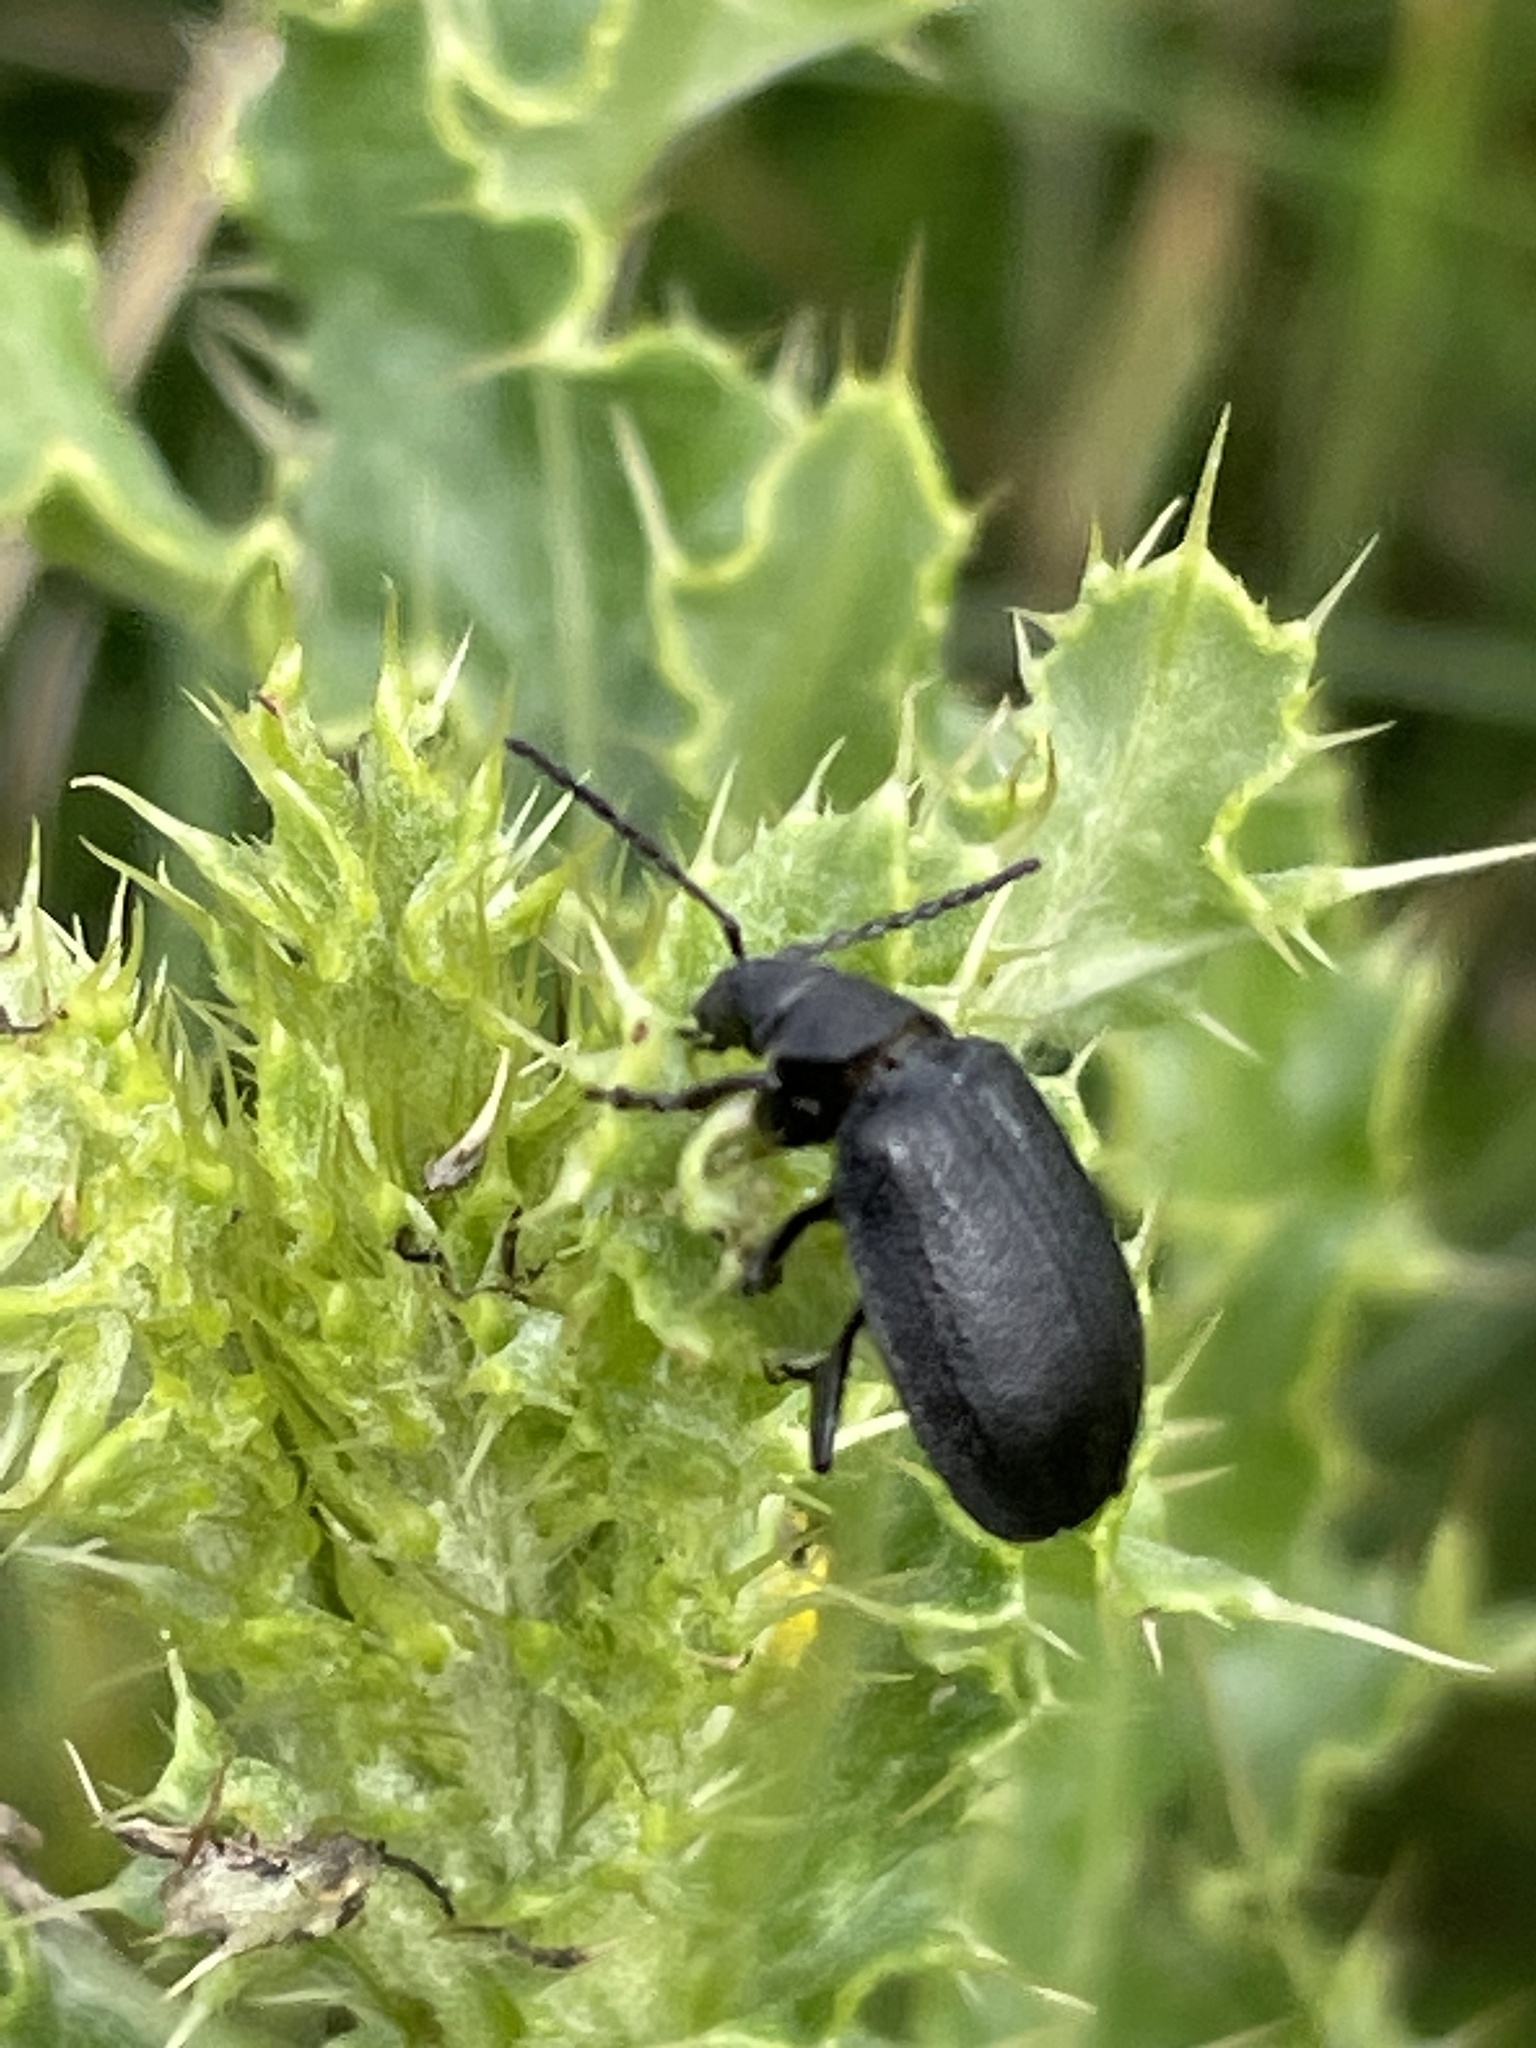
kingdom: Animalia
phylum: Arthropoda
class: Insecta
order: Coleoptera
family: Chrysomelidae
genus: Galeruca
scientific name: Galeruca tanaceti
